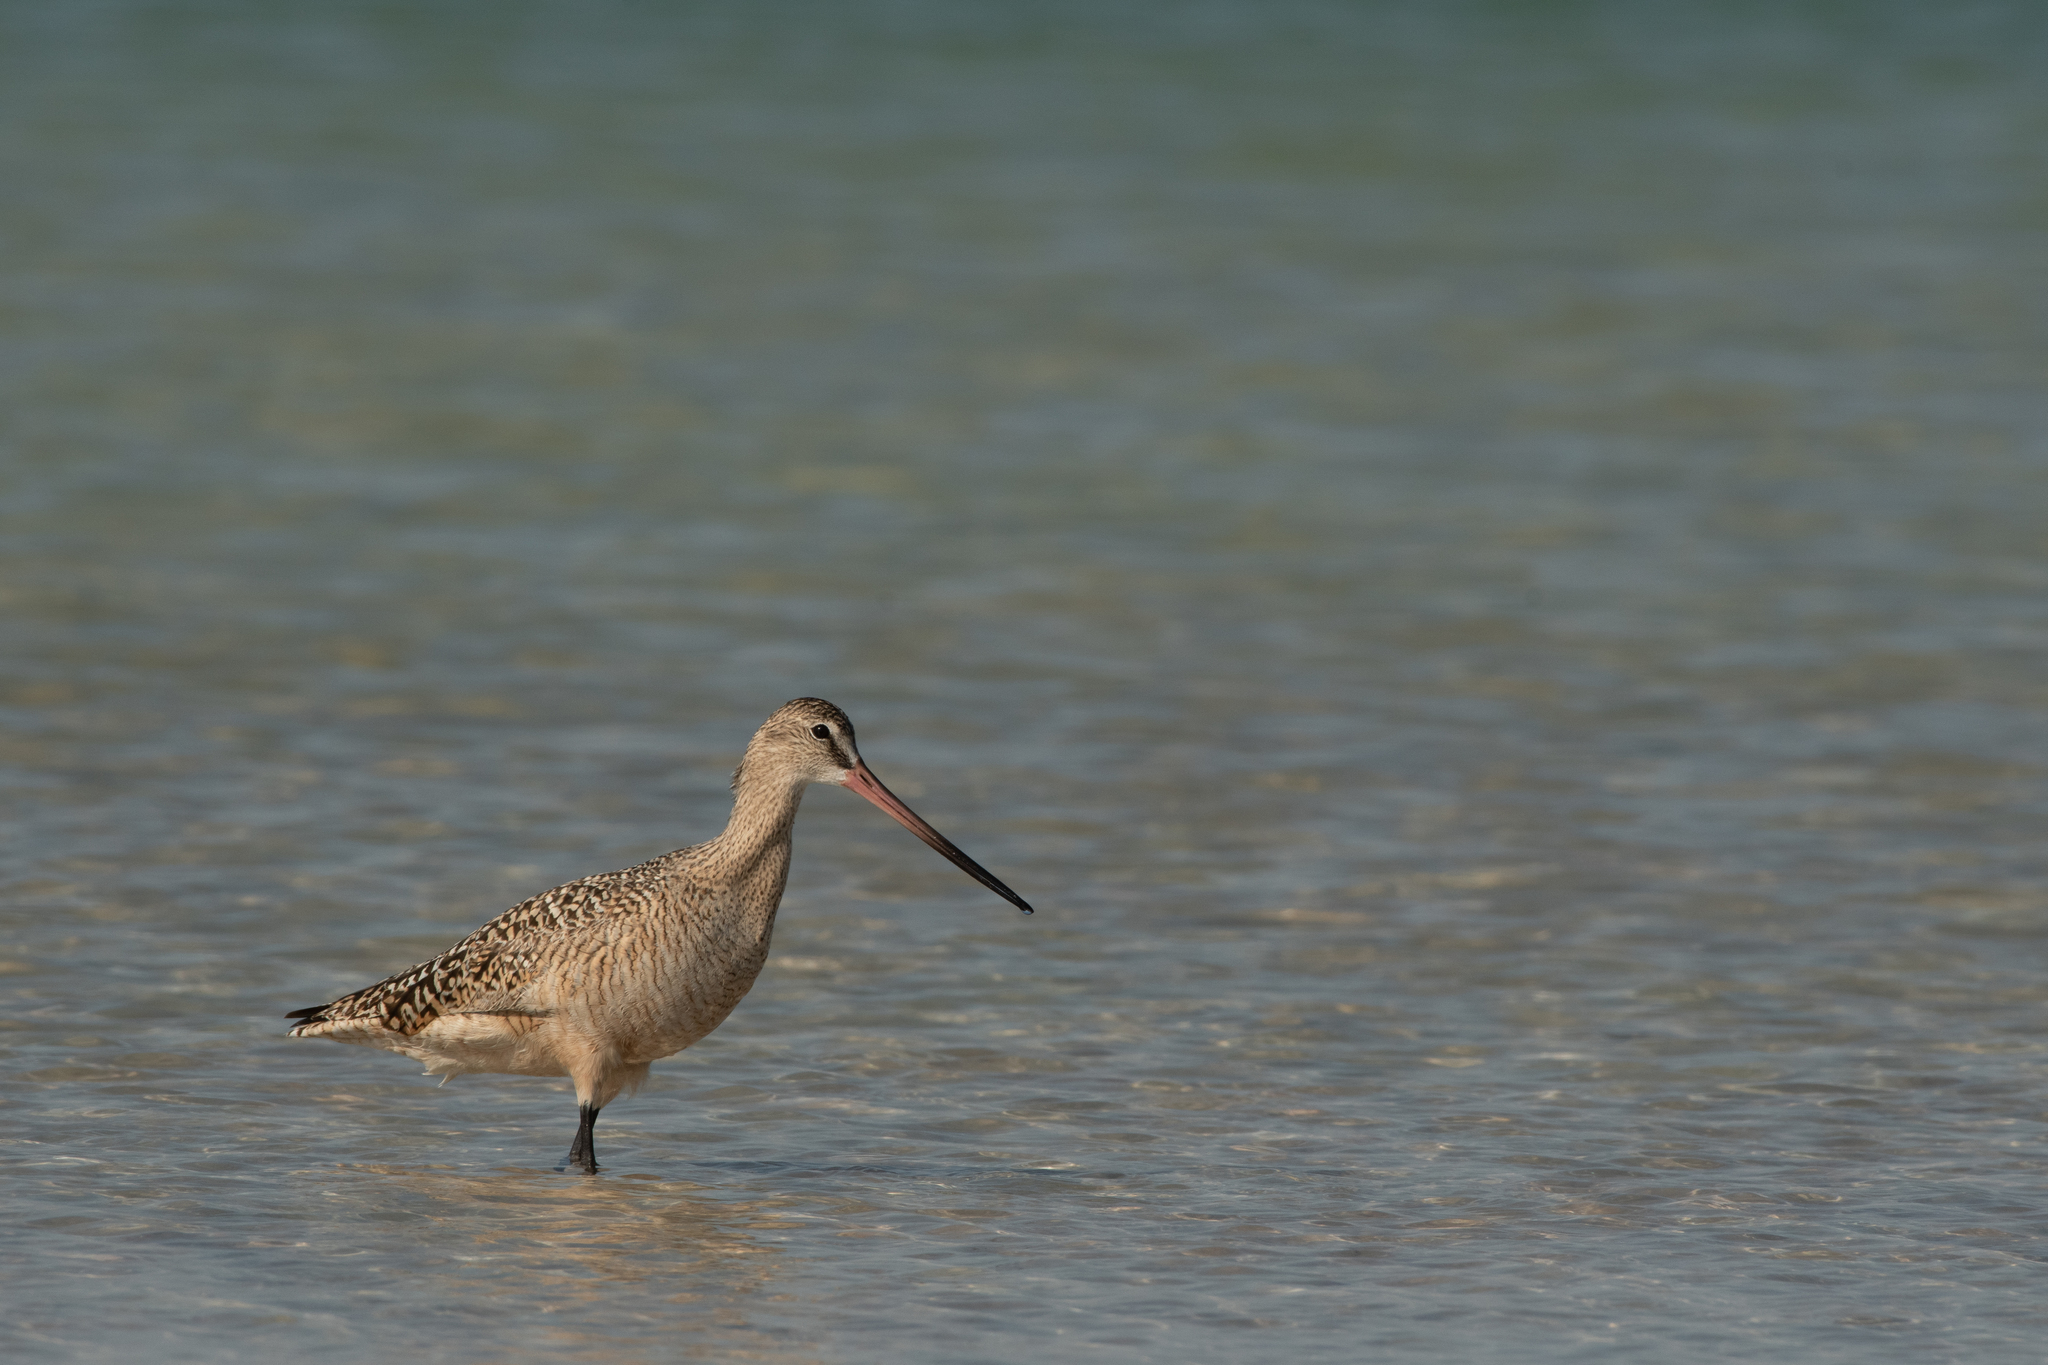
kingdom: Animalia
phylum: Chordata
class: Aves
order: Charadriiformes
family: Scolopacidae
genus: Limosa
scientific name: Limosa fedoa
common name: Marbled godwit
